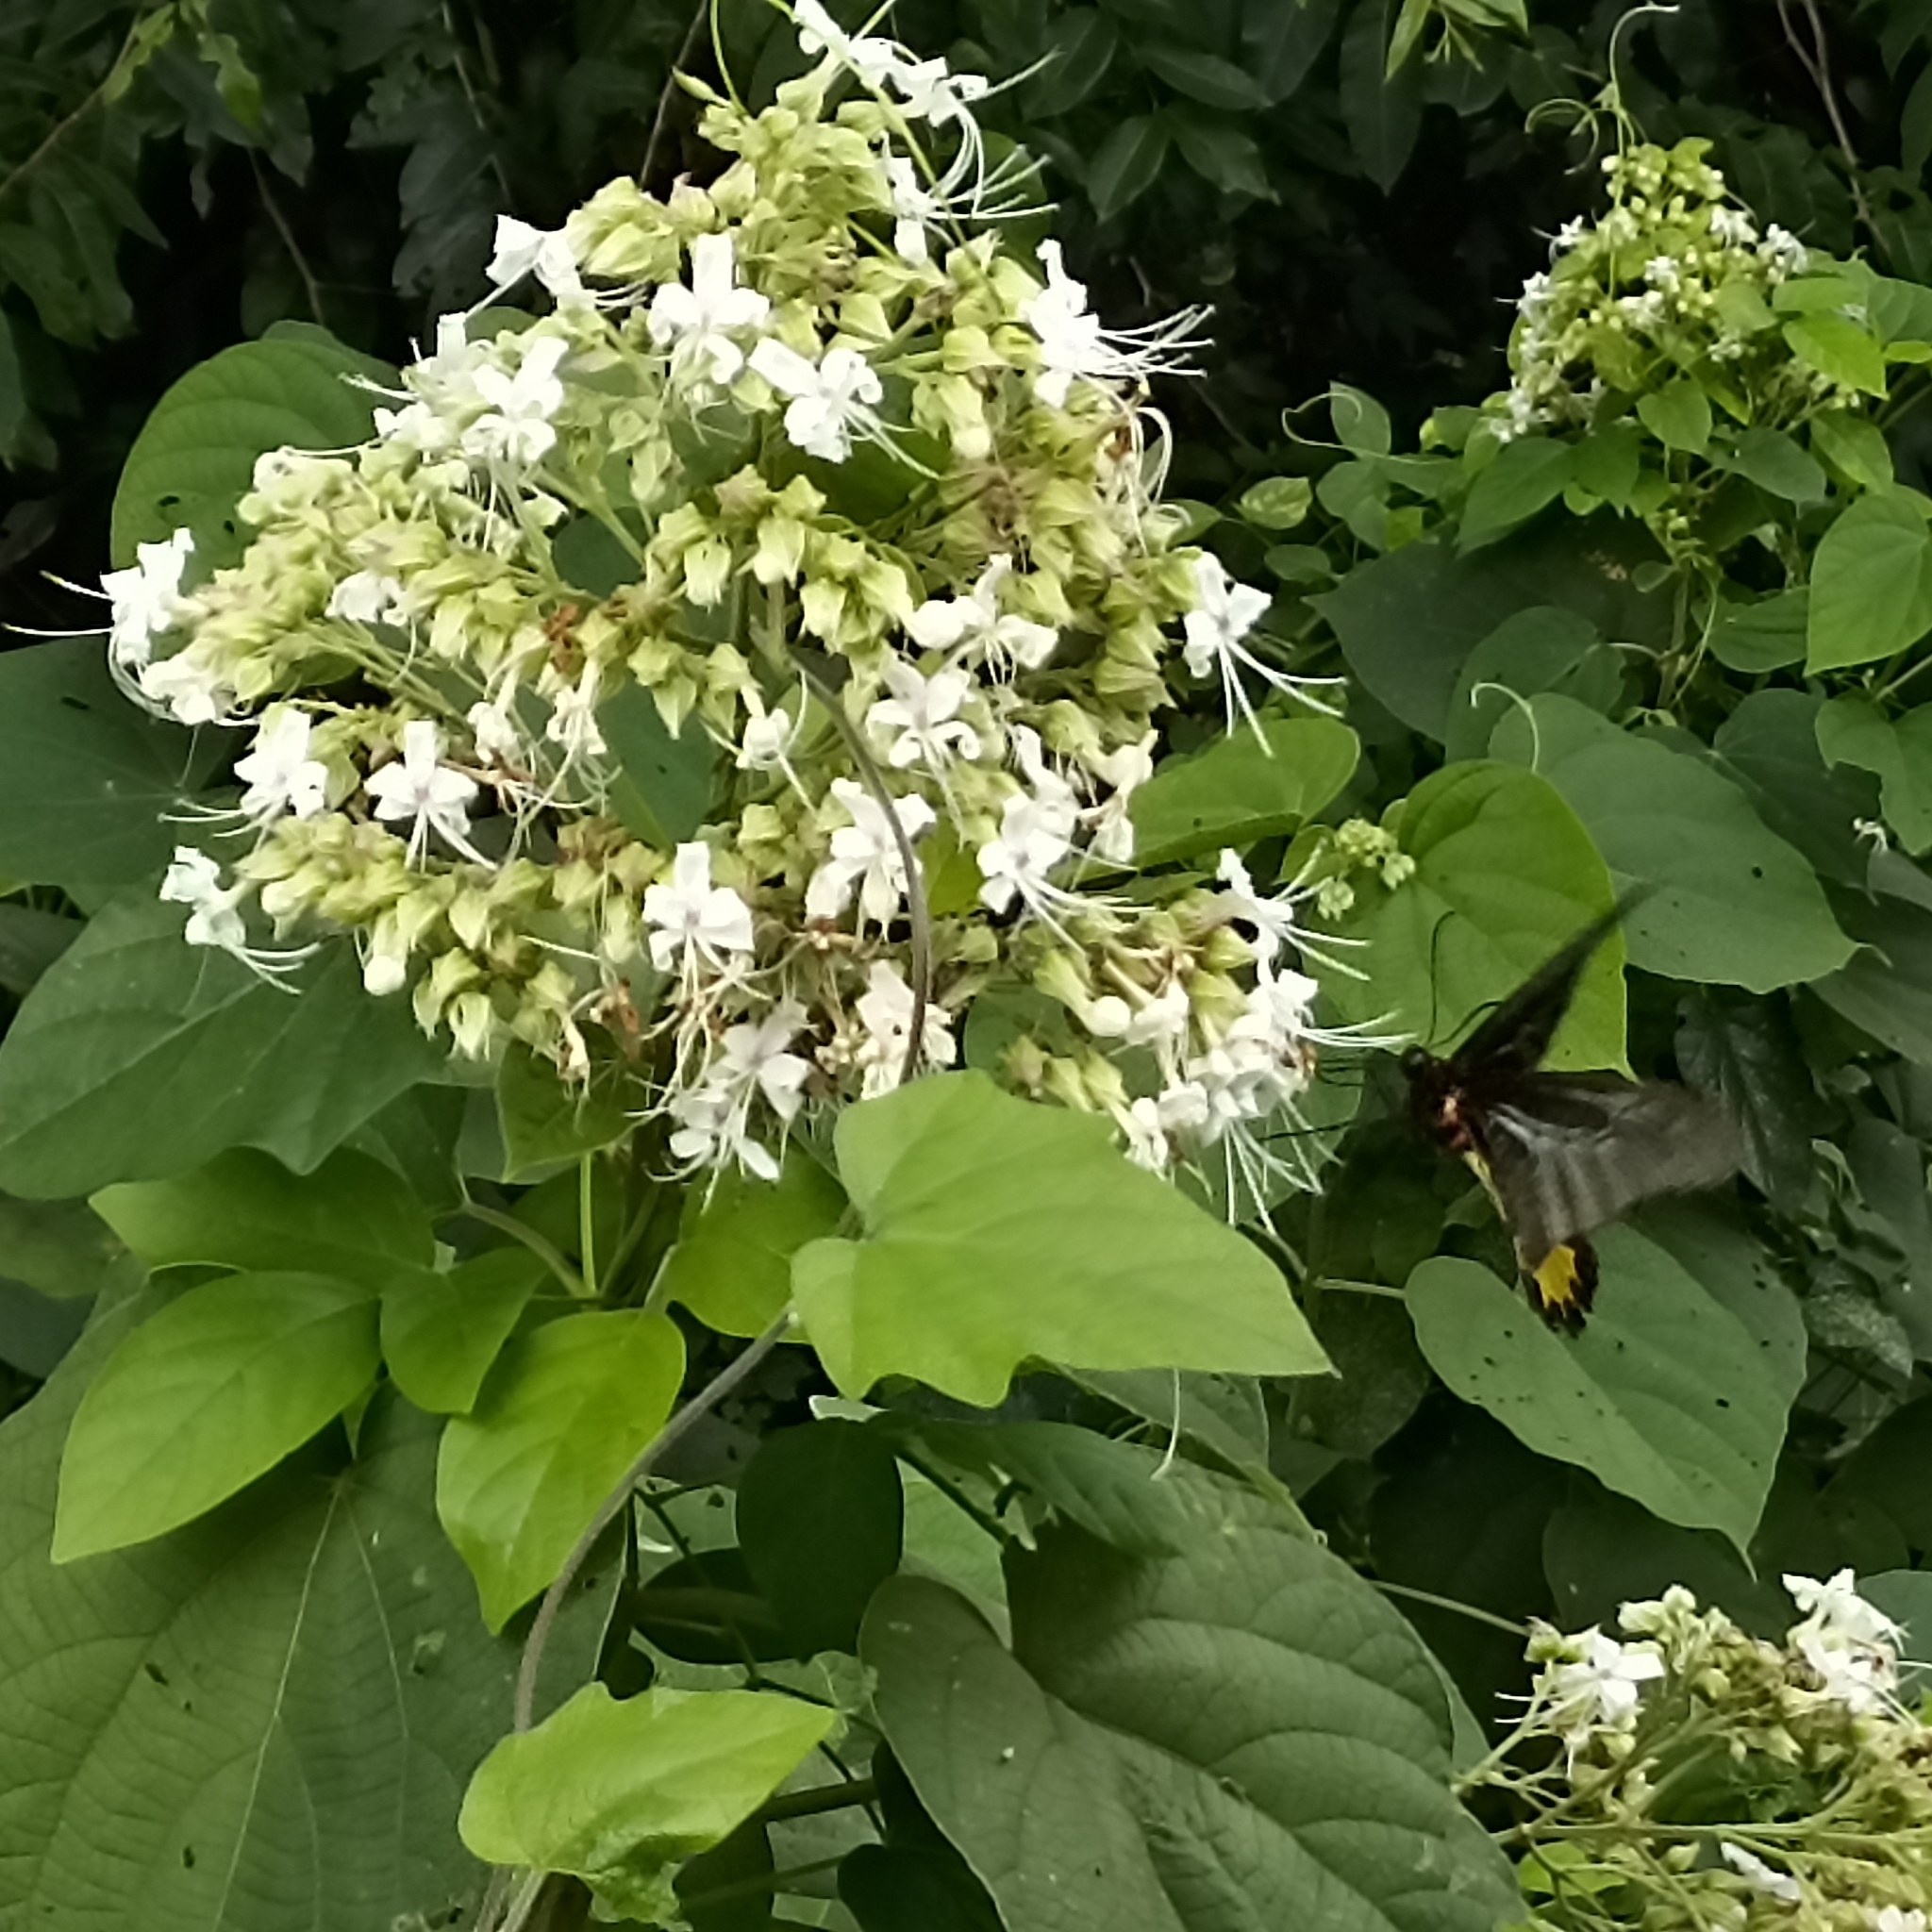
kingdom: Plantae
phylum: Tracheophyta
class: Magnoliopsida
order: Lamiales
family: Lamiaceae
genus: Clerodendrum
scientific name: Clerodendrum infortunatum
